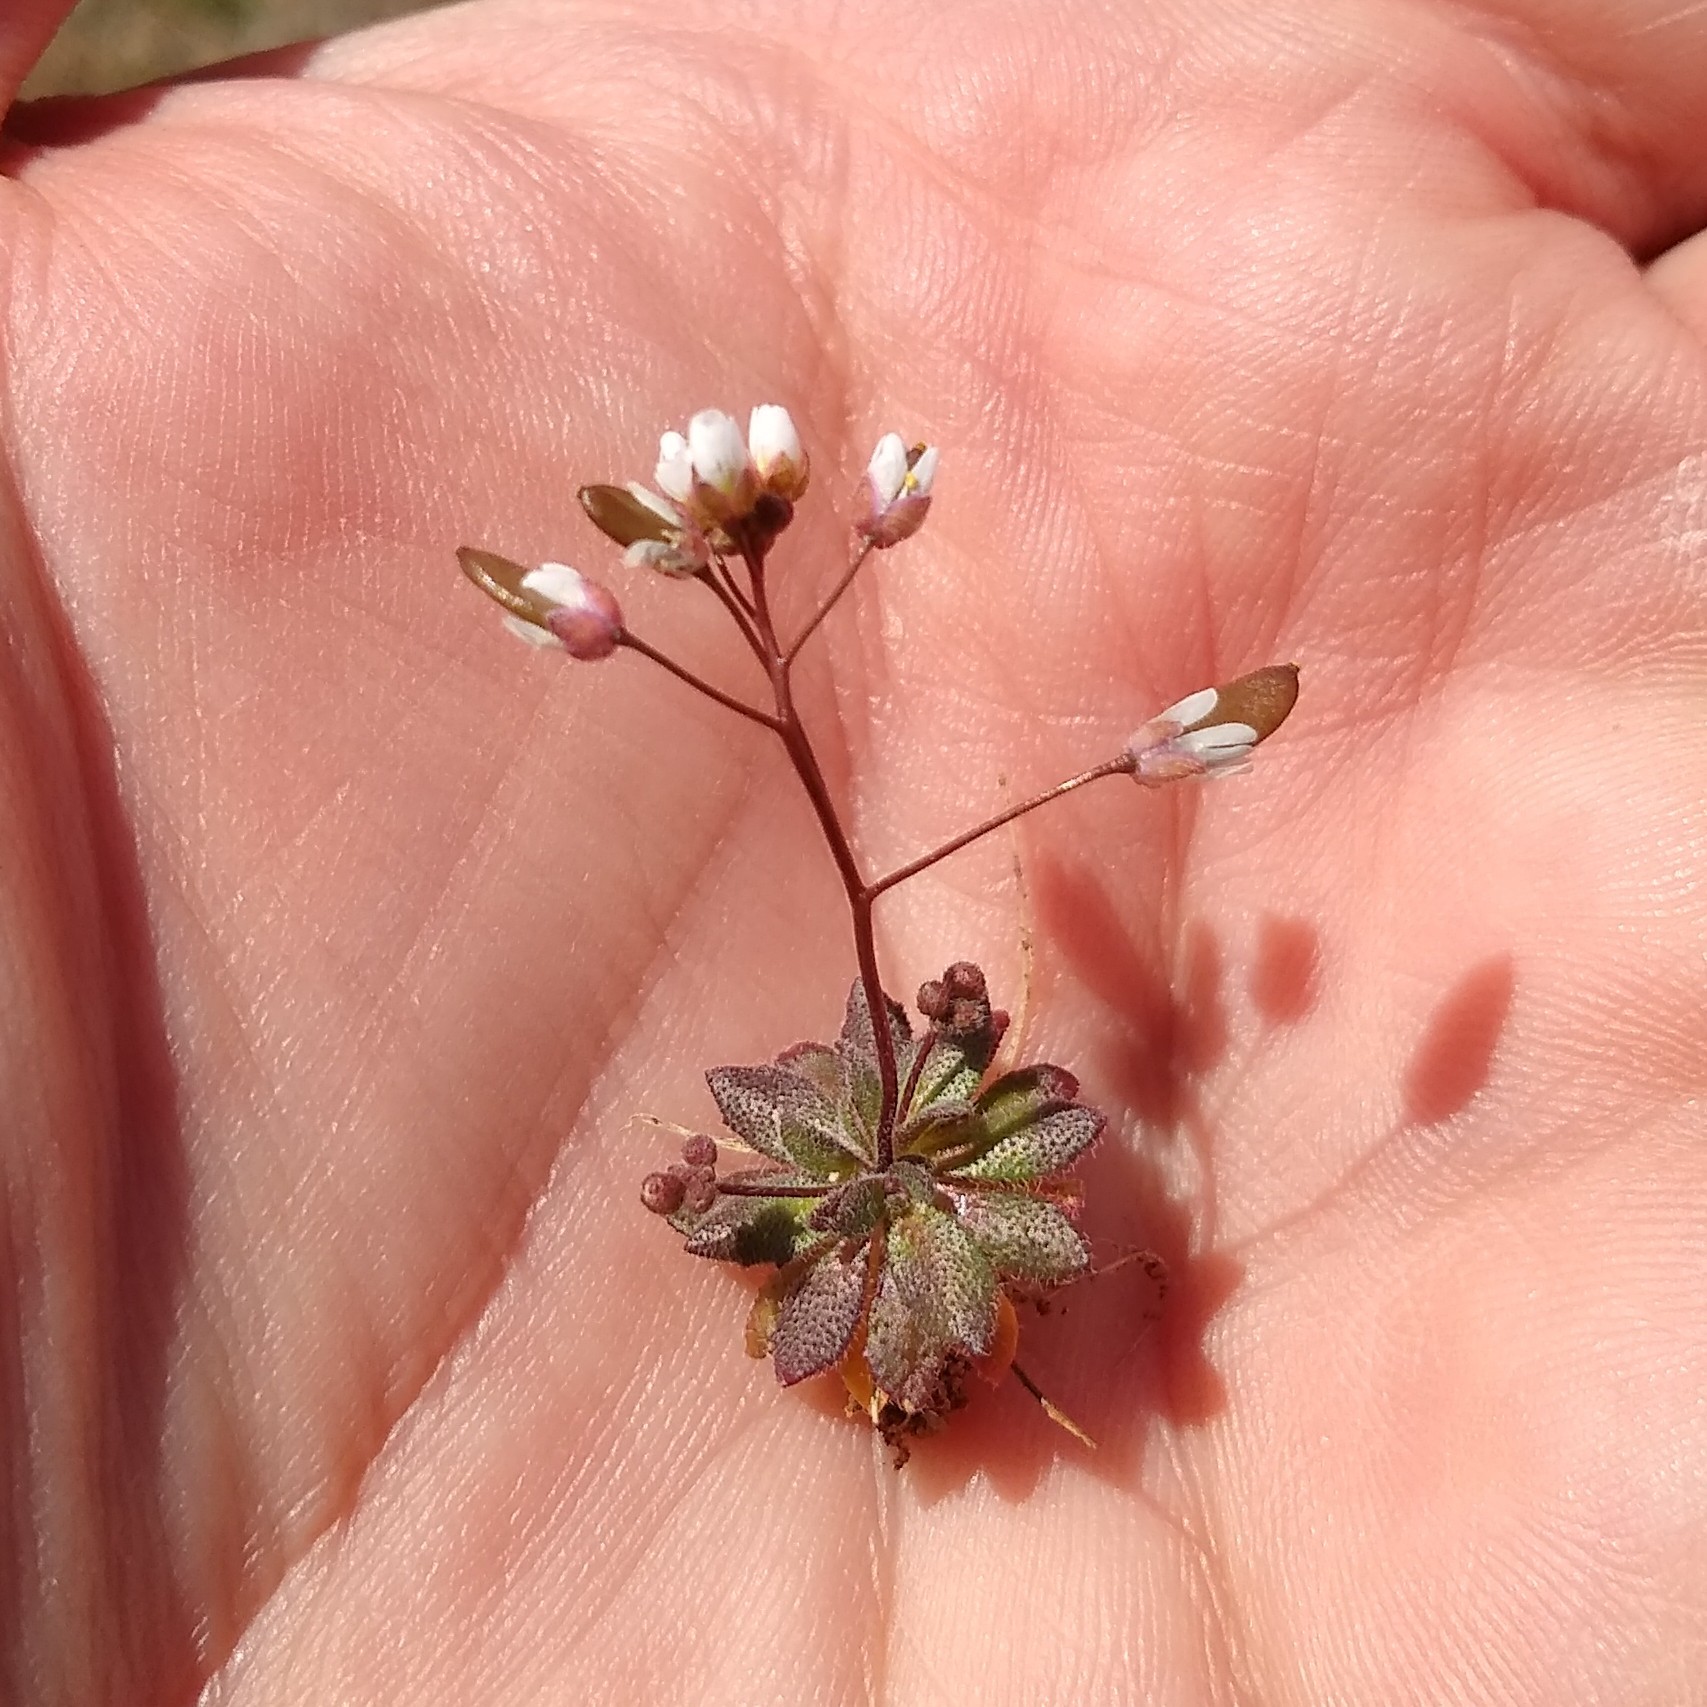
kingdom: Plantae
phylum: Tracheophyta
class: Magnoliopsida
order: Brassicales
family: Brassicaceae
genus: Draba
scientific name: Draba verna
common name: Spring draba
